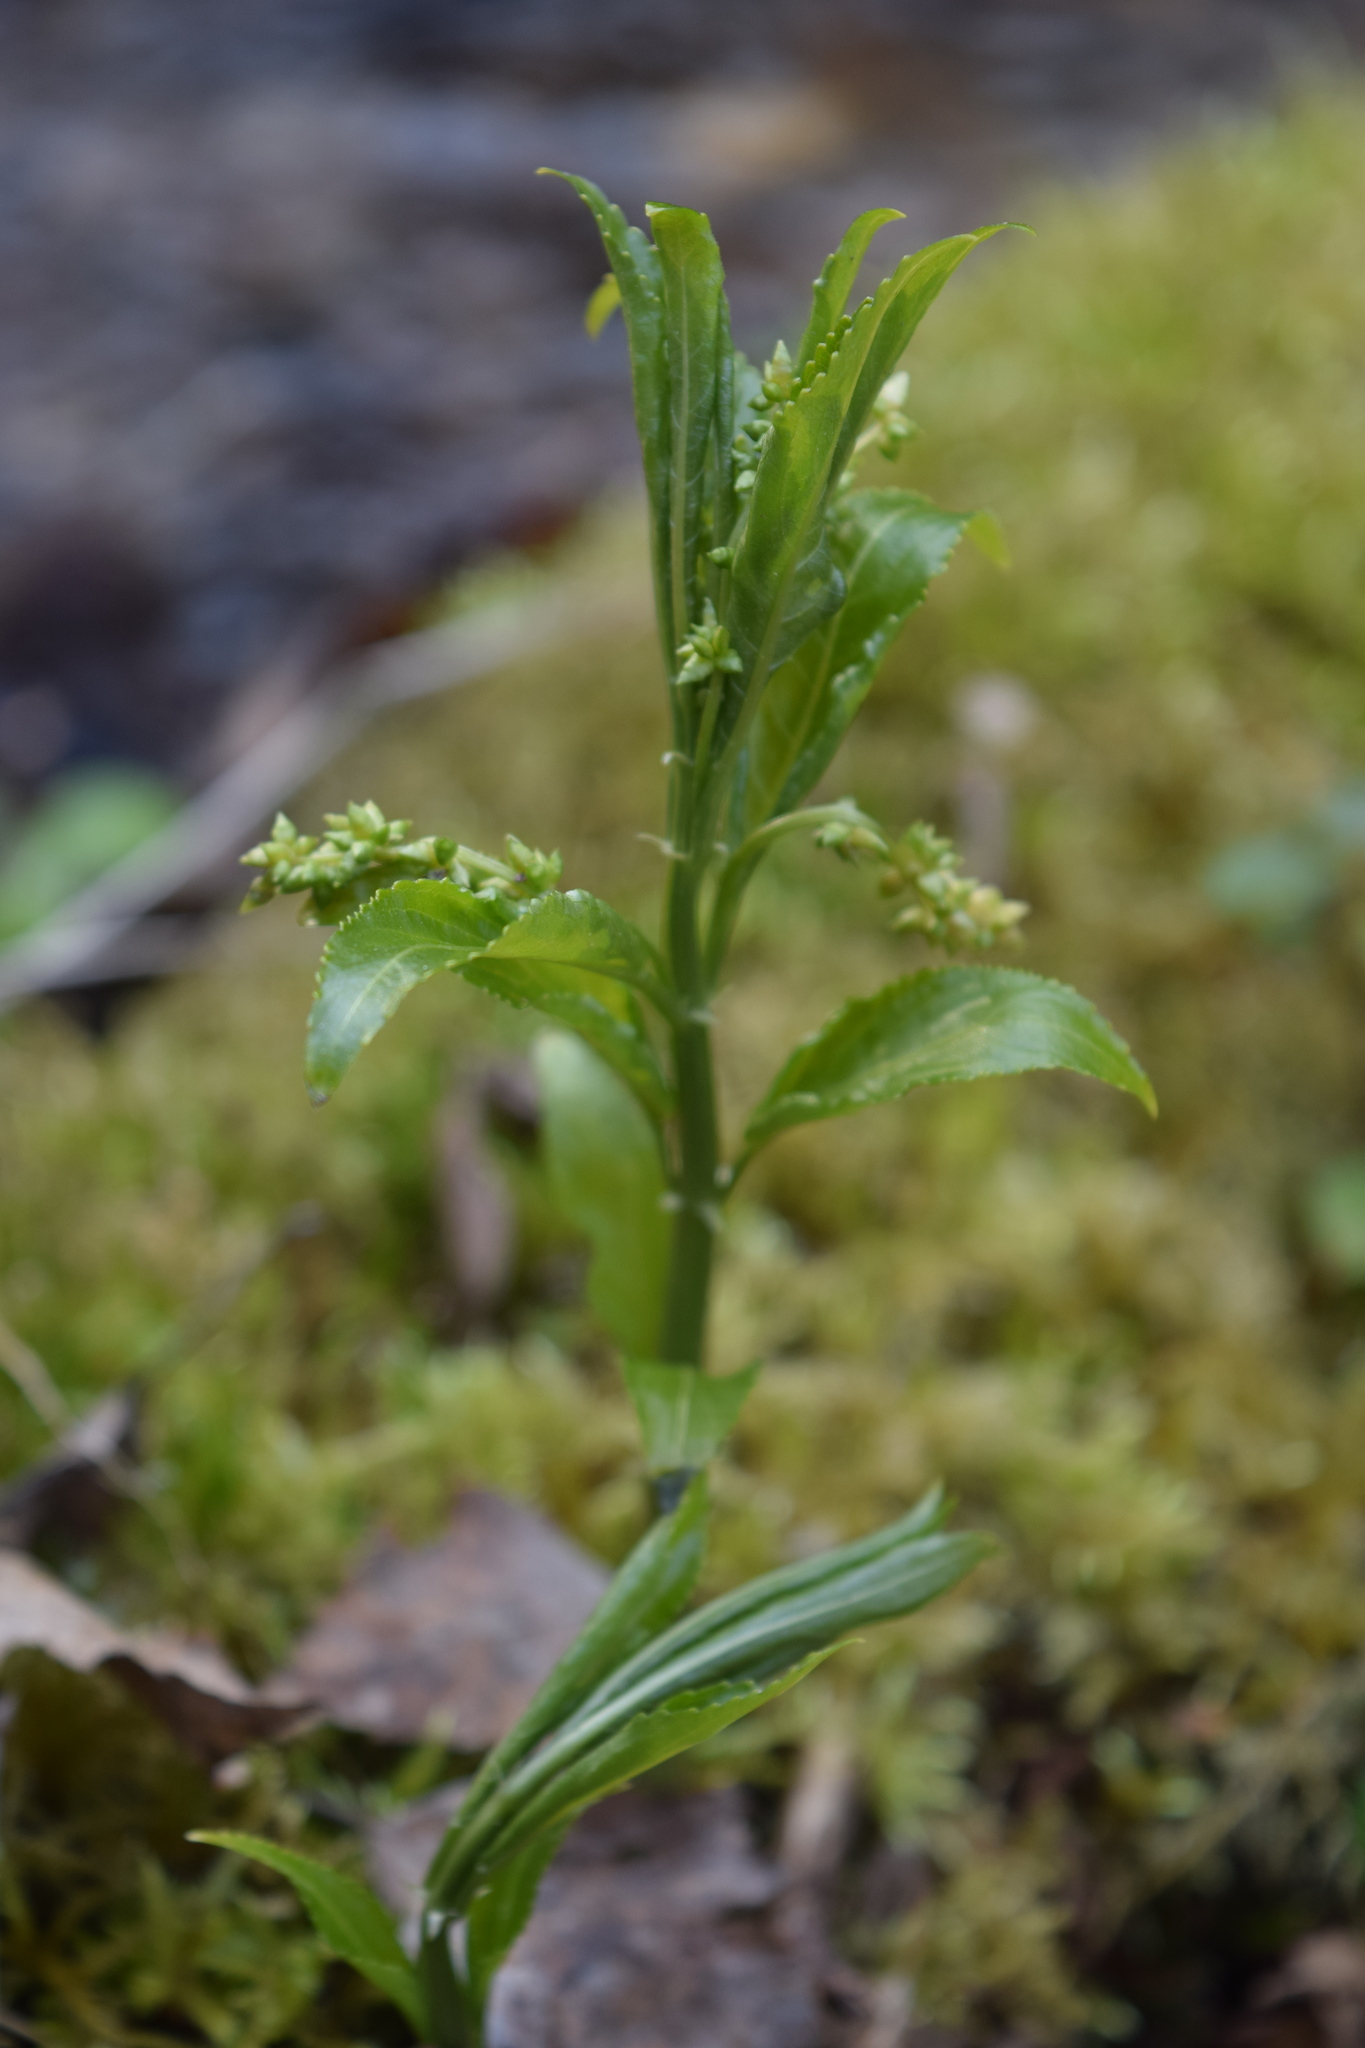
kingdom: Plantae
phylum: Tracheophyta
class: Magnoliopsida
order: Malpighiales
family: Euphorbiaceae
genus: Mercurialis
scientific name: Mercurialis perennis
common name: Dog mercury
